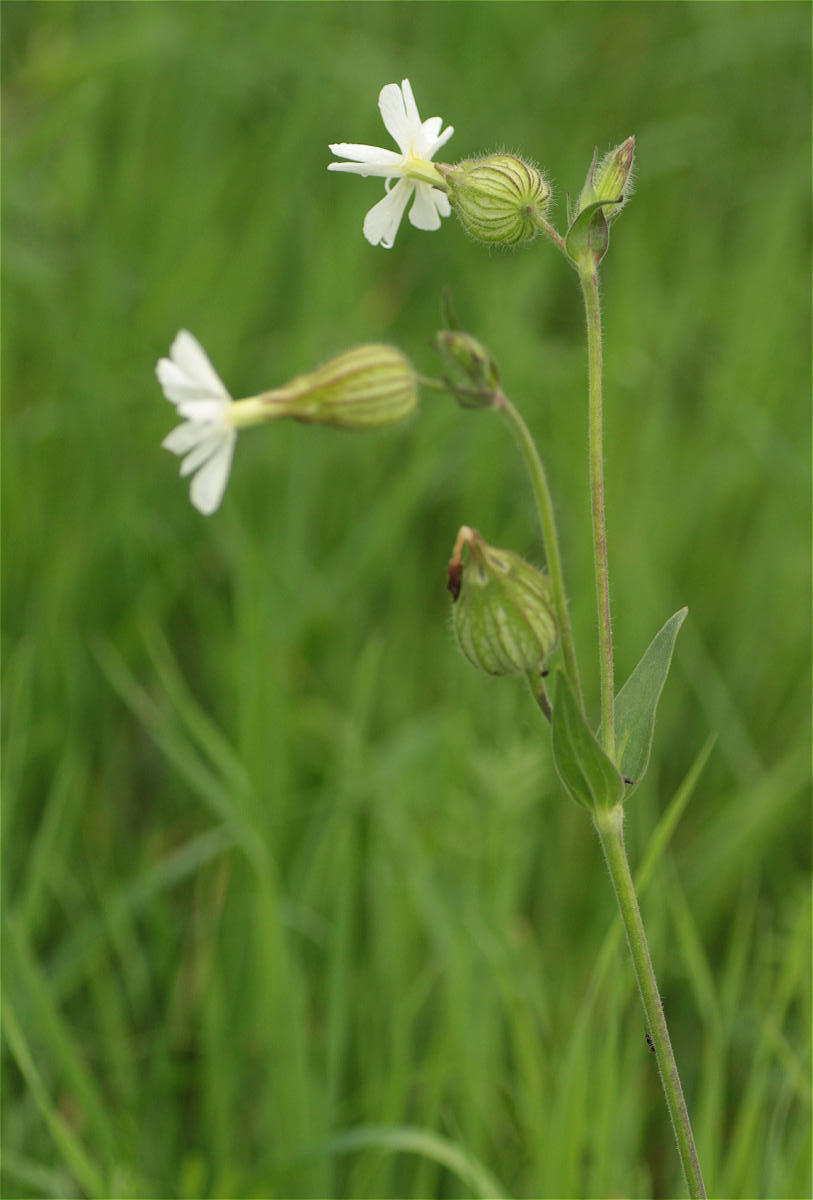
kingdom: Plantae
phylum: Tracheophyta
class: Magnoliopsida
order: Caryophyllales
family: Caryophyllaceae
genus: Silene
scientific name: Silene latifolia
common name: White campion
